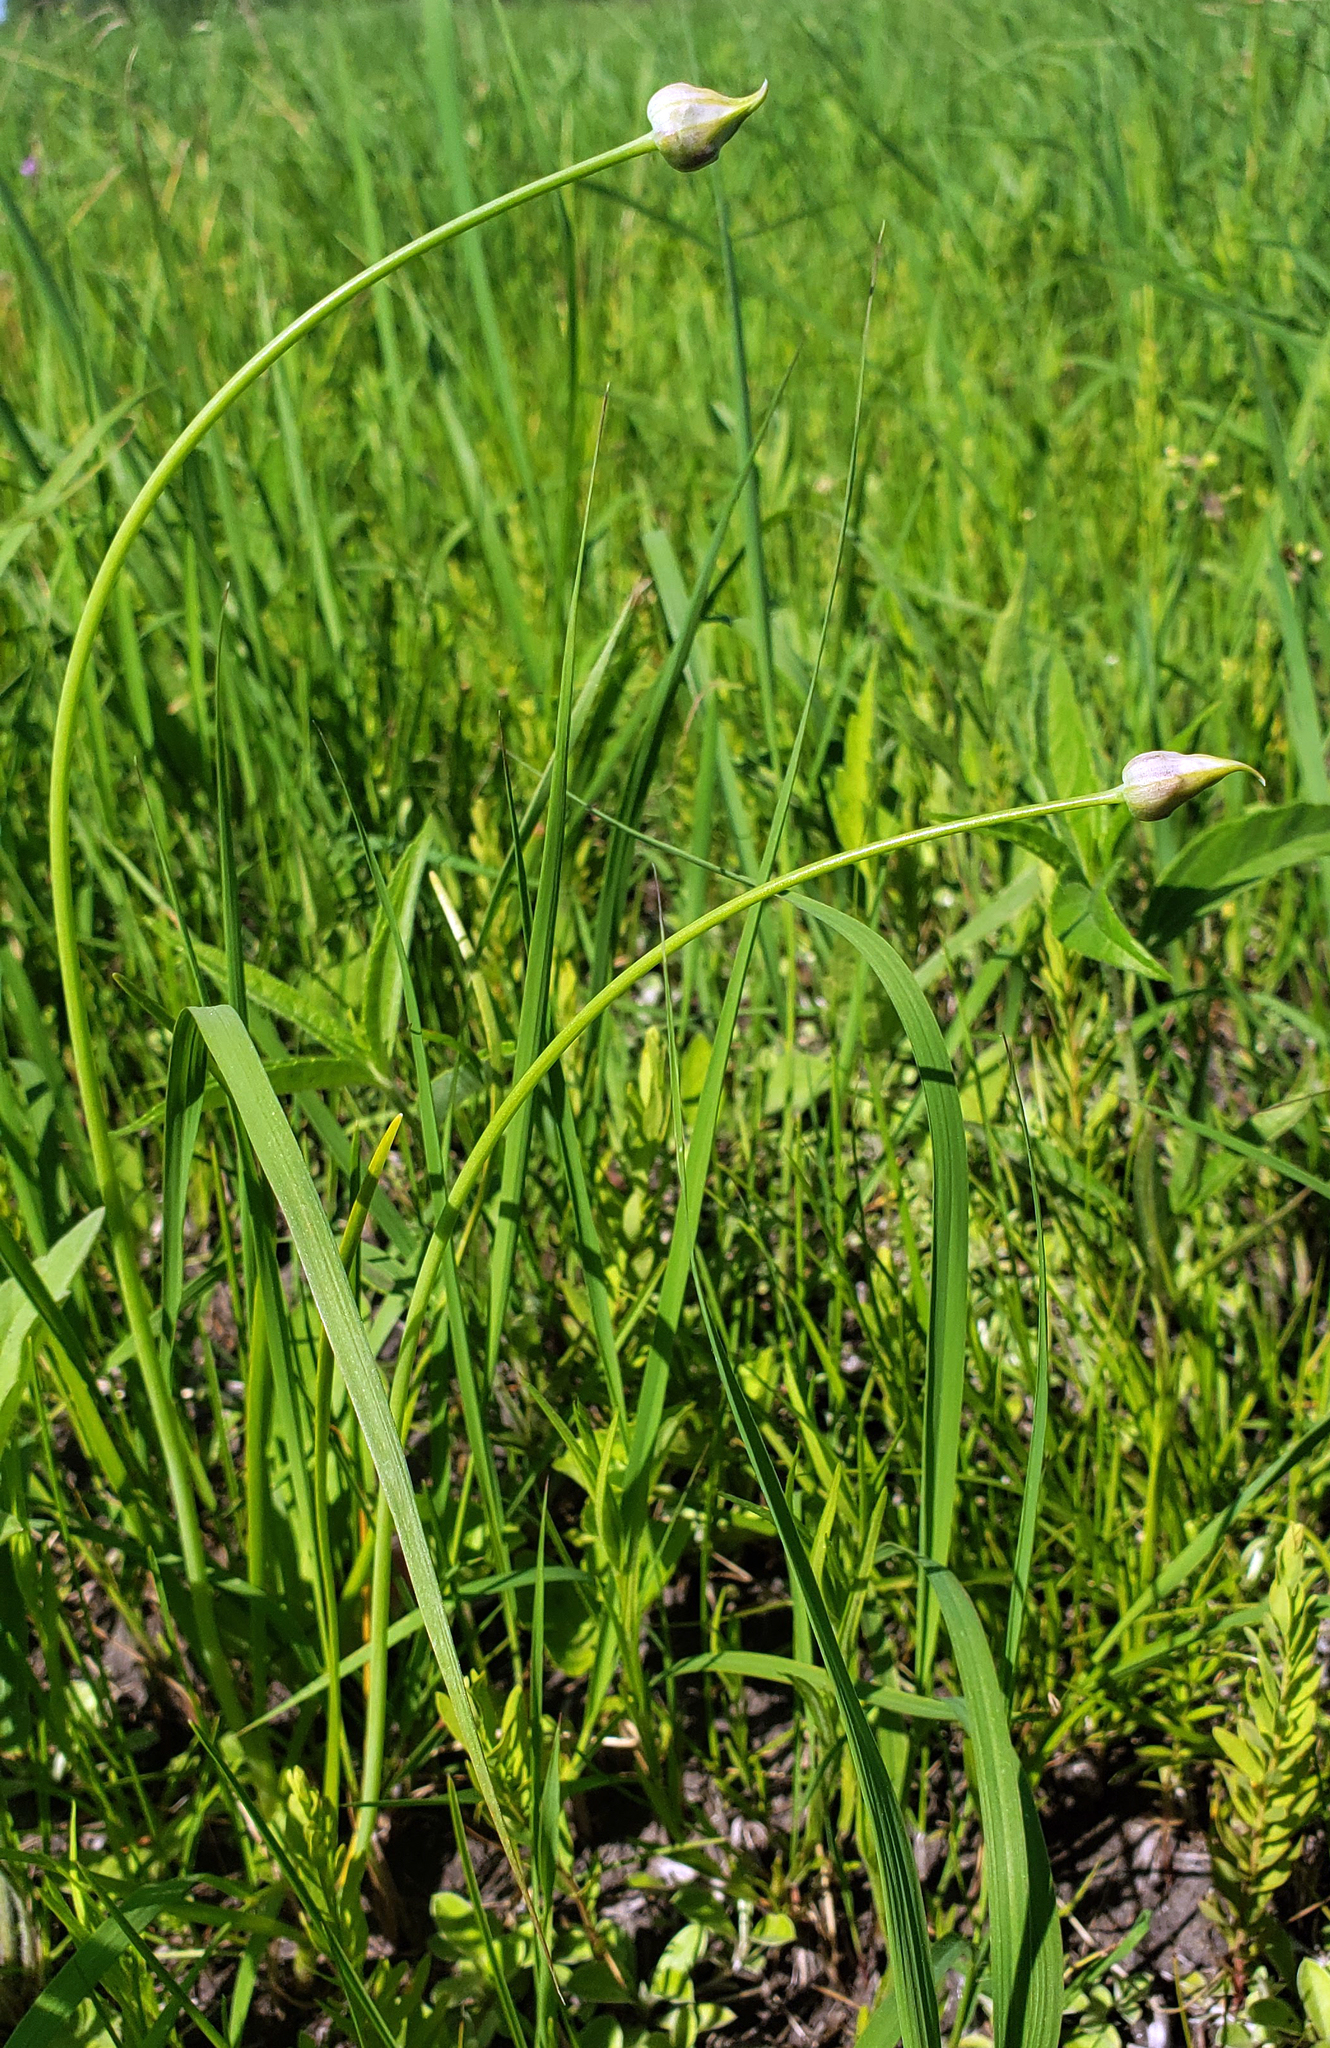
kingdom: Plantae
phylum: Tracheophyta
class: Liliopsida
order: Asparagales
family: Amaryllidaceae
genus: Allium
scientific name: Allium canadense
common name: Meadow garlic
